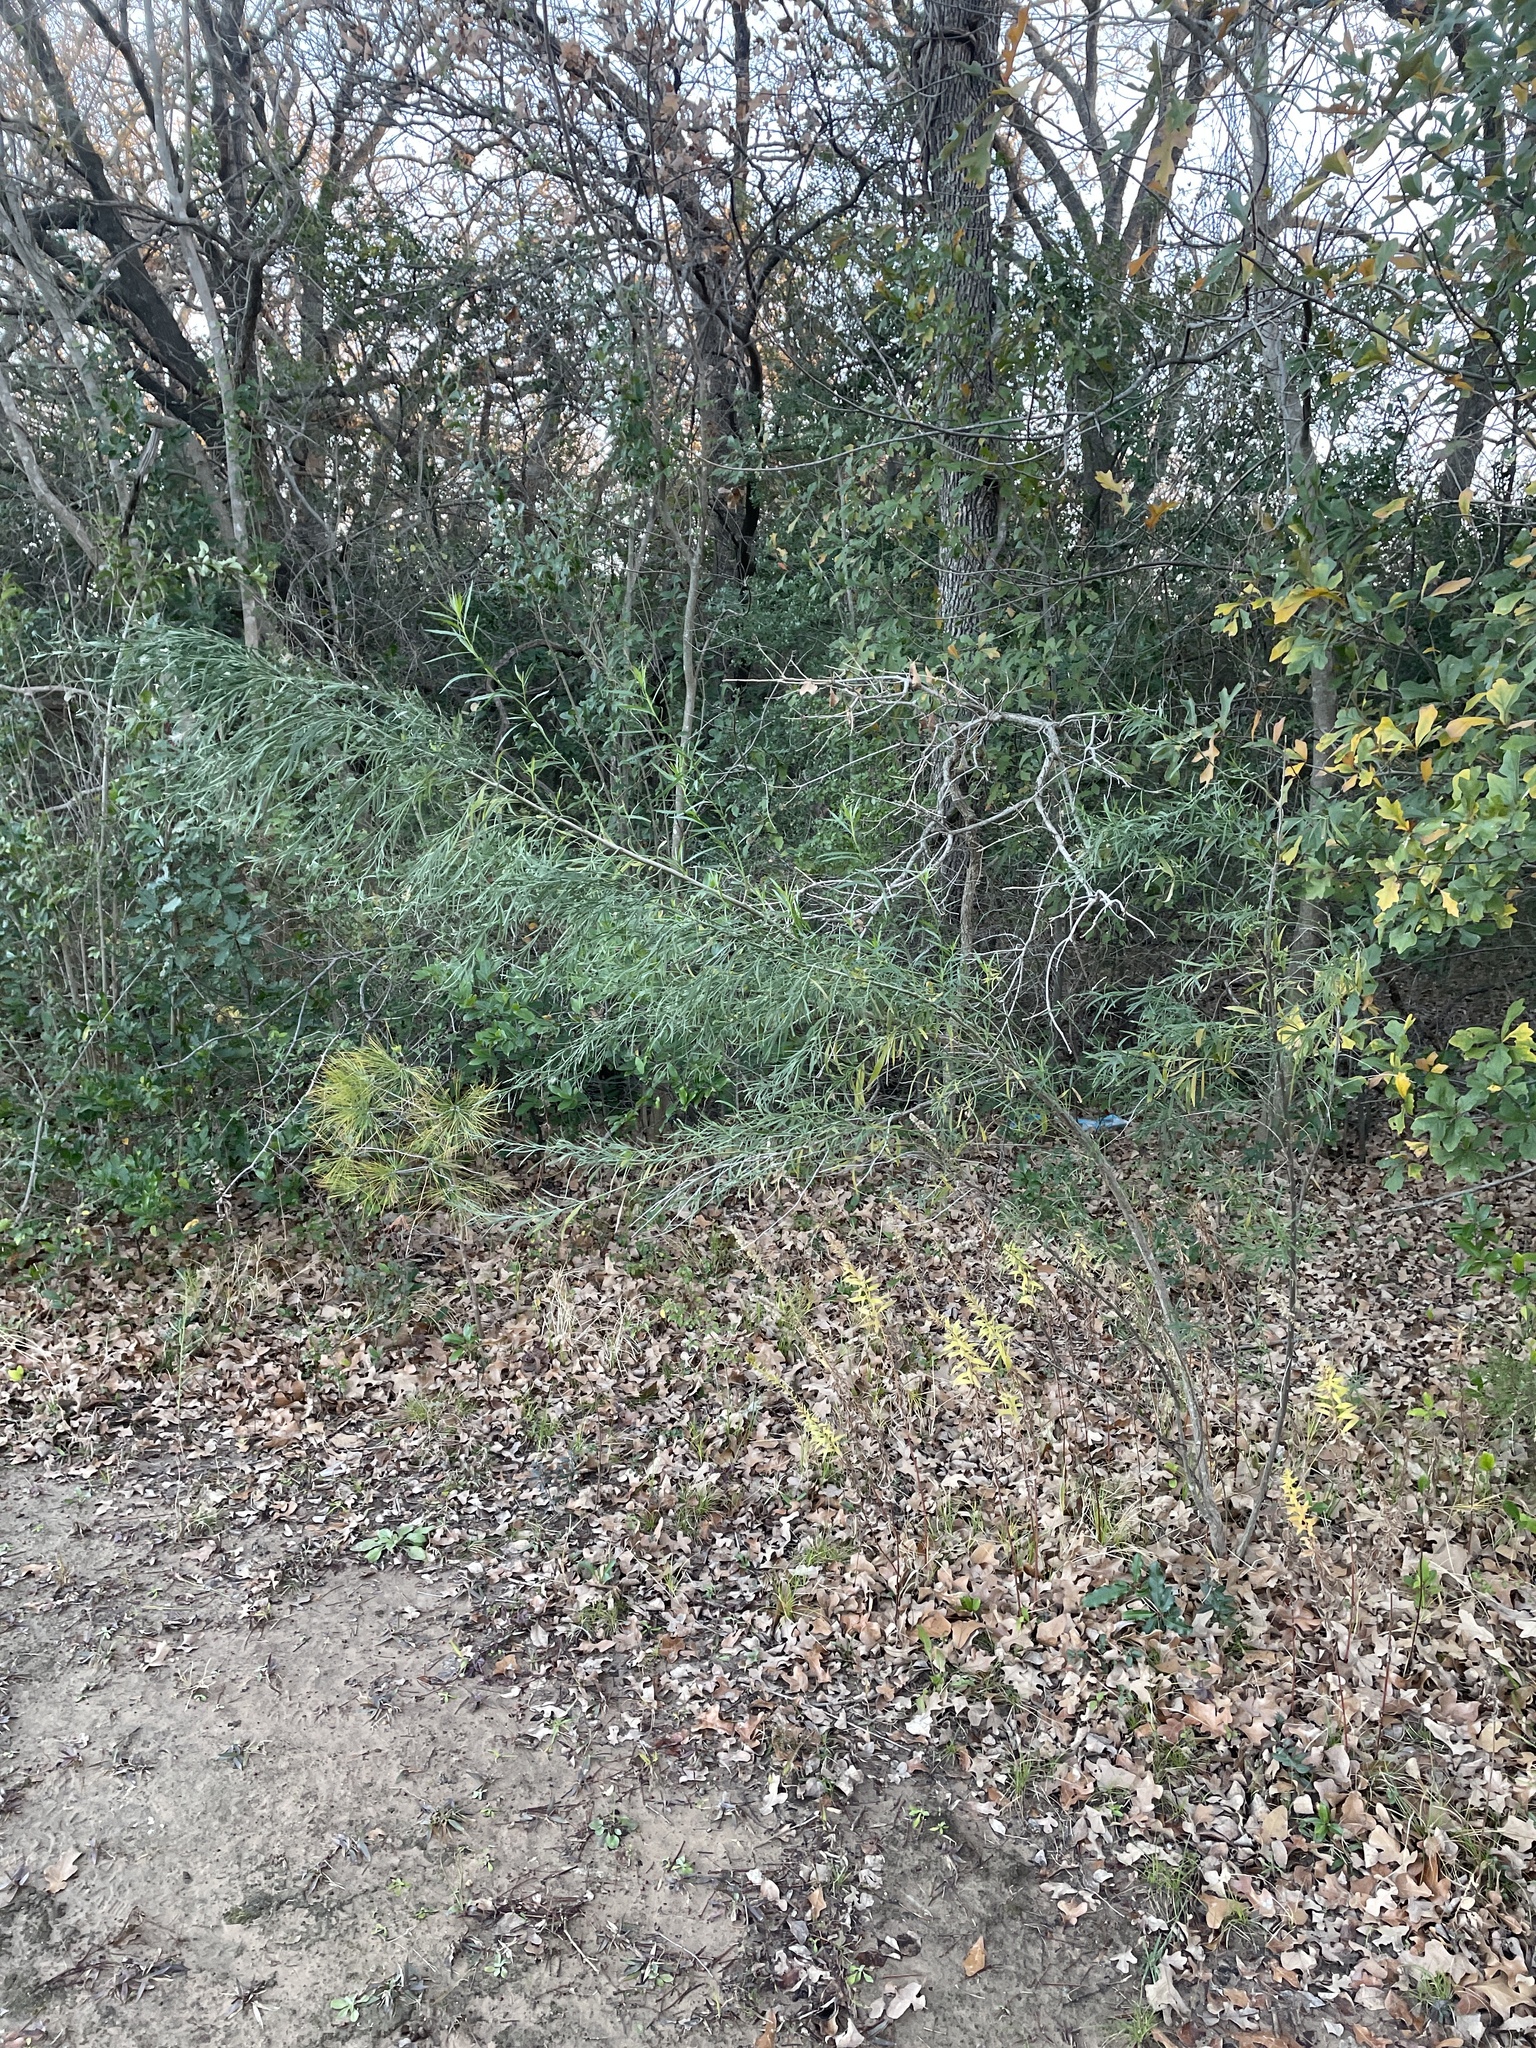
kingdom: Plantae
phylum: Tracheophyta
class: Magnoliopsida
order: Asterales
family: Asteraceae
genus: Baccharis
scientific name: Baccharis neglecta
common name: Roosevelt-weed
